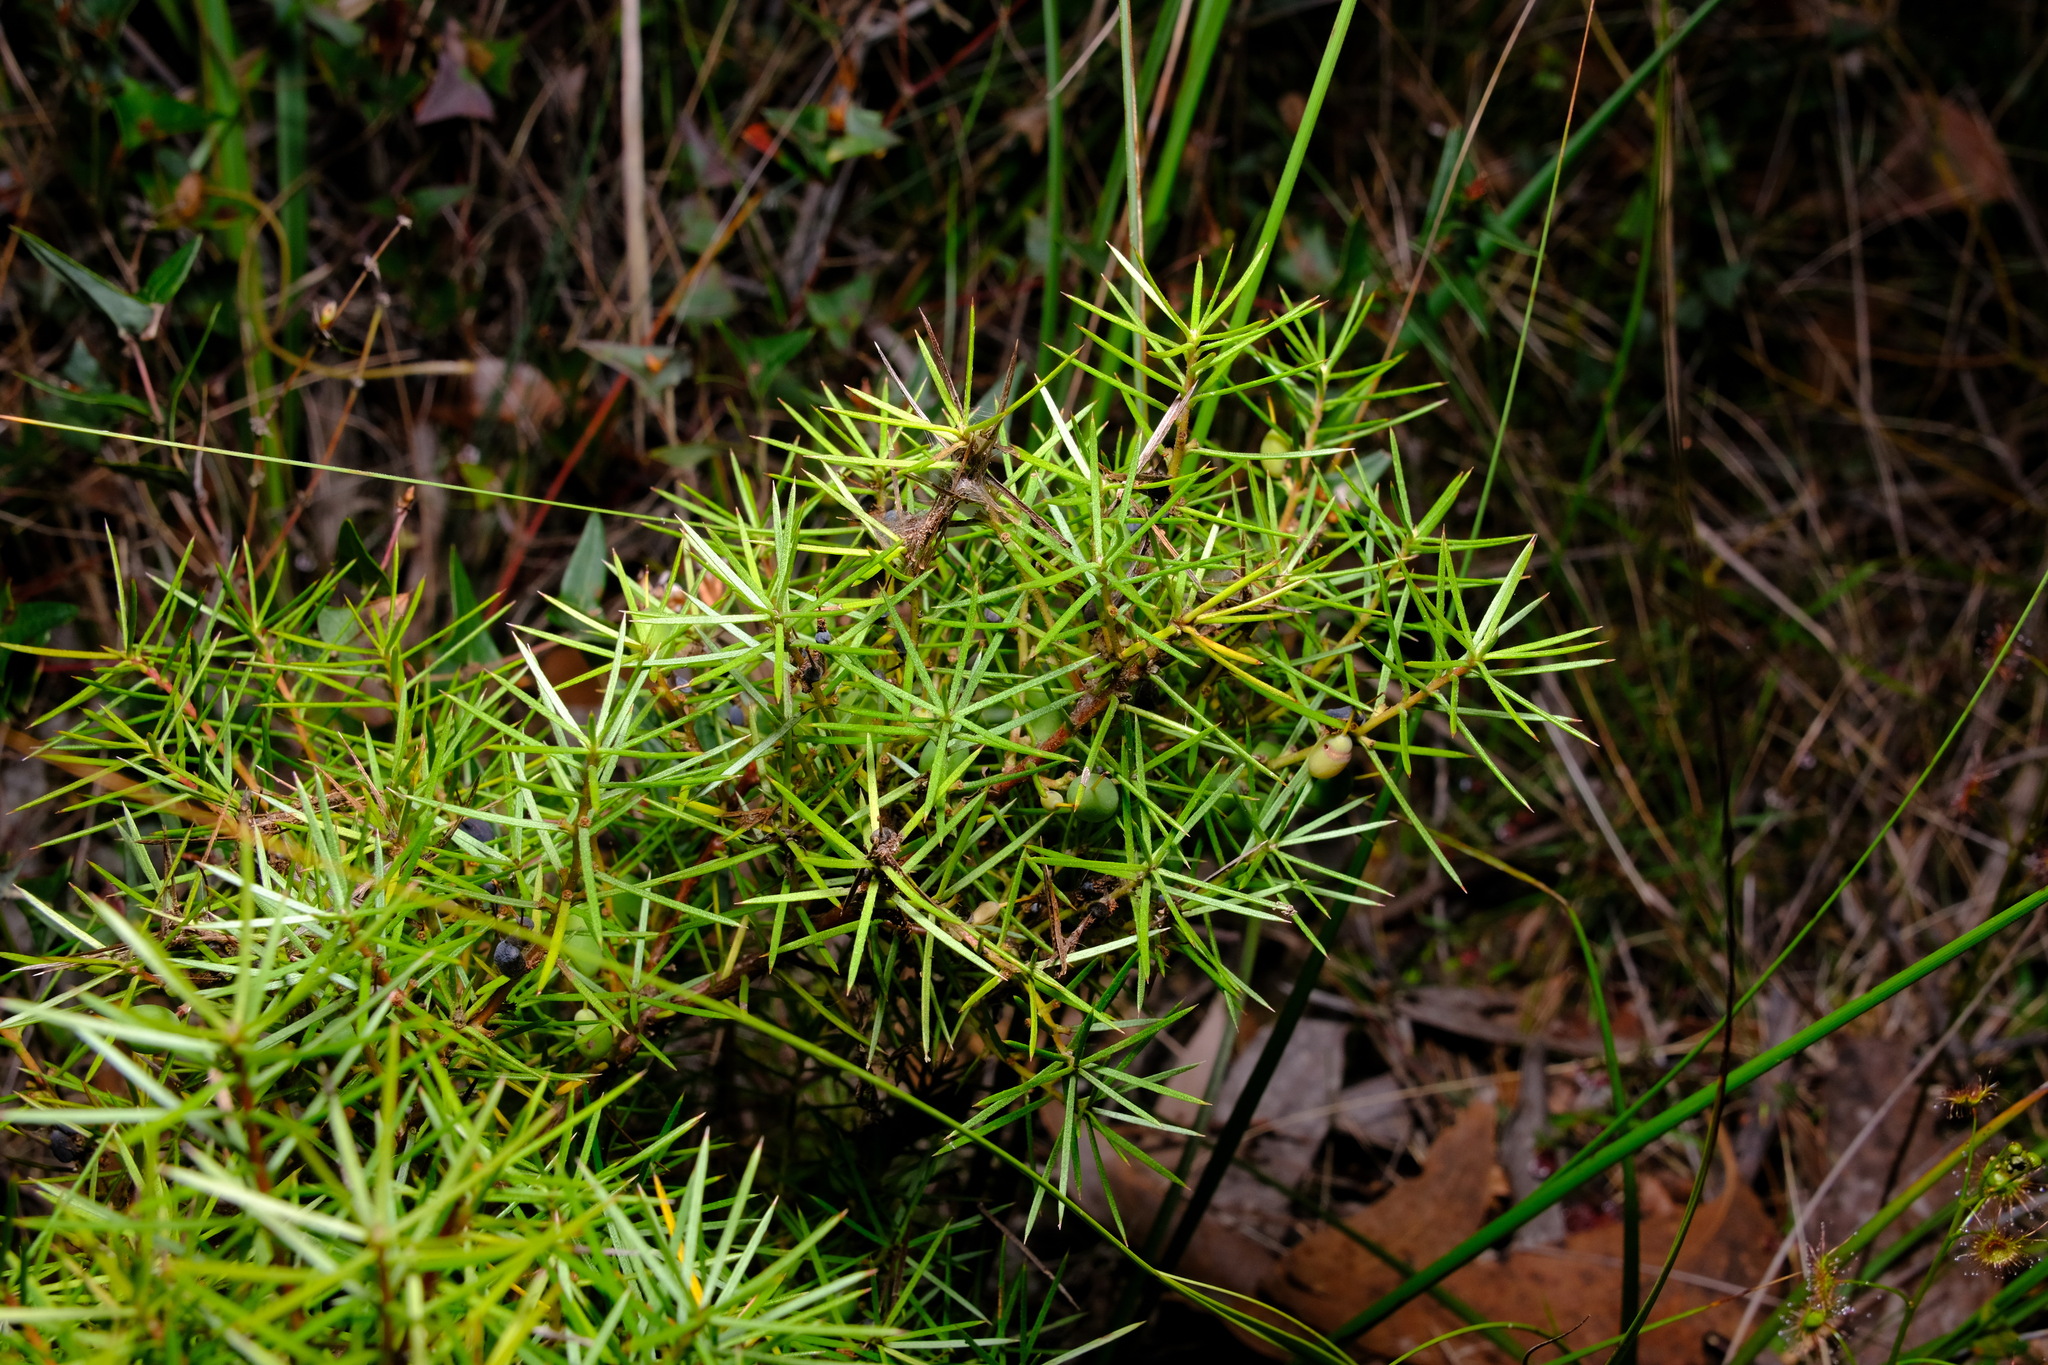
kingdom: Plantae
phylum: Tracheophyta
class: Magnoliopsida
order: Proteales
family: Proteaceae
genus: Persoonia
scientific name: Persoonia juniperina
